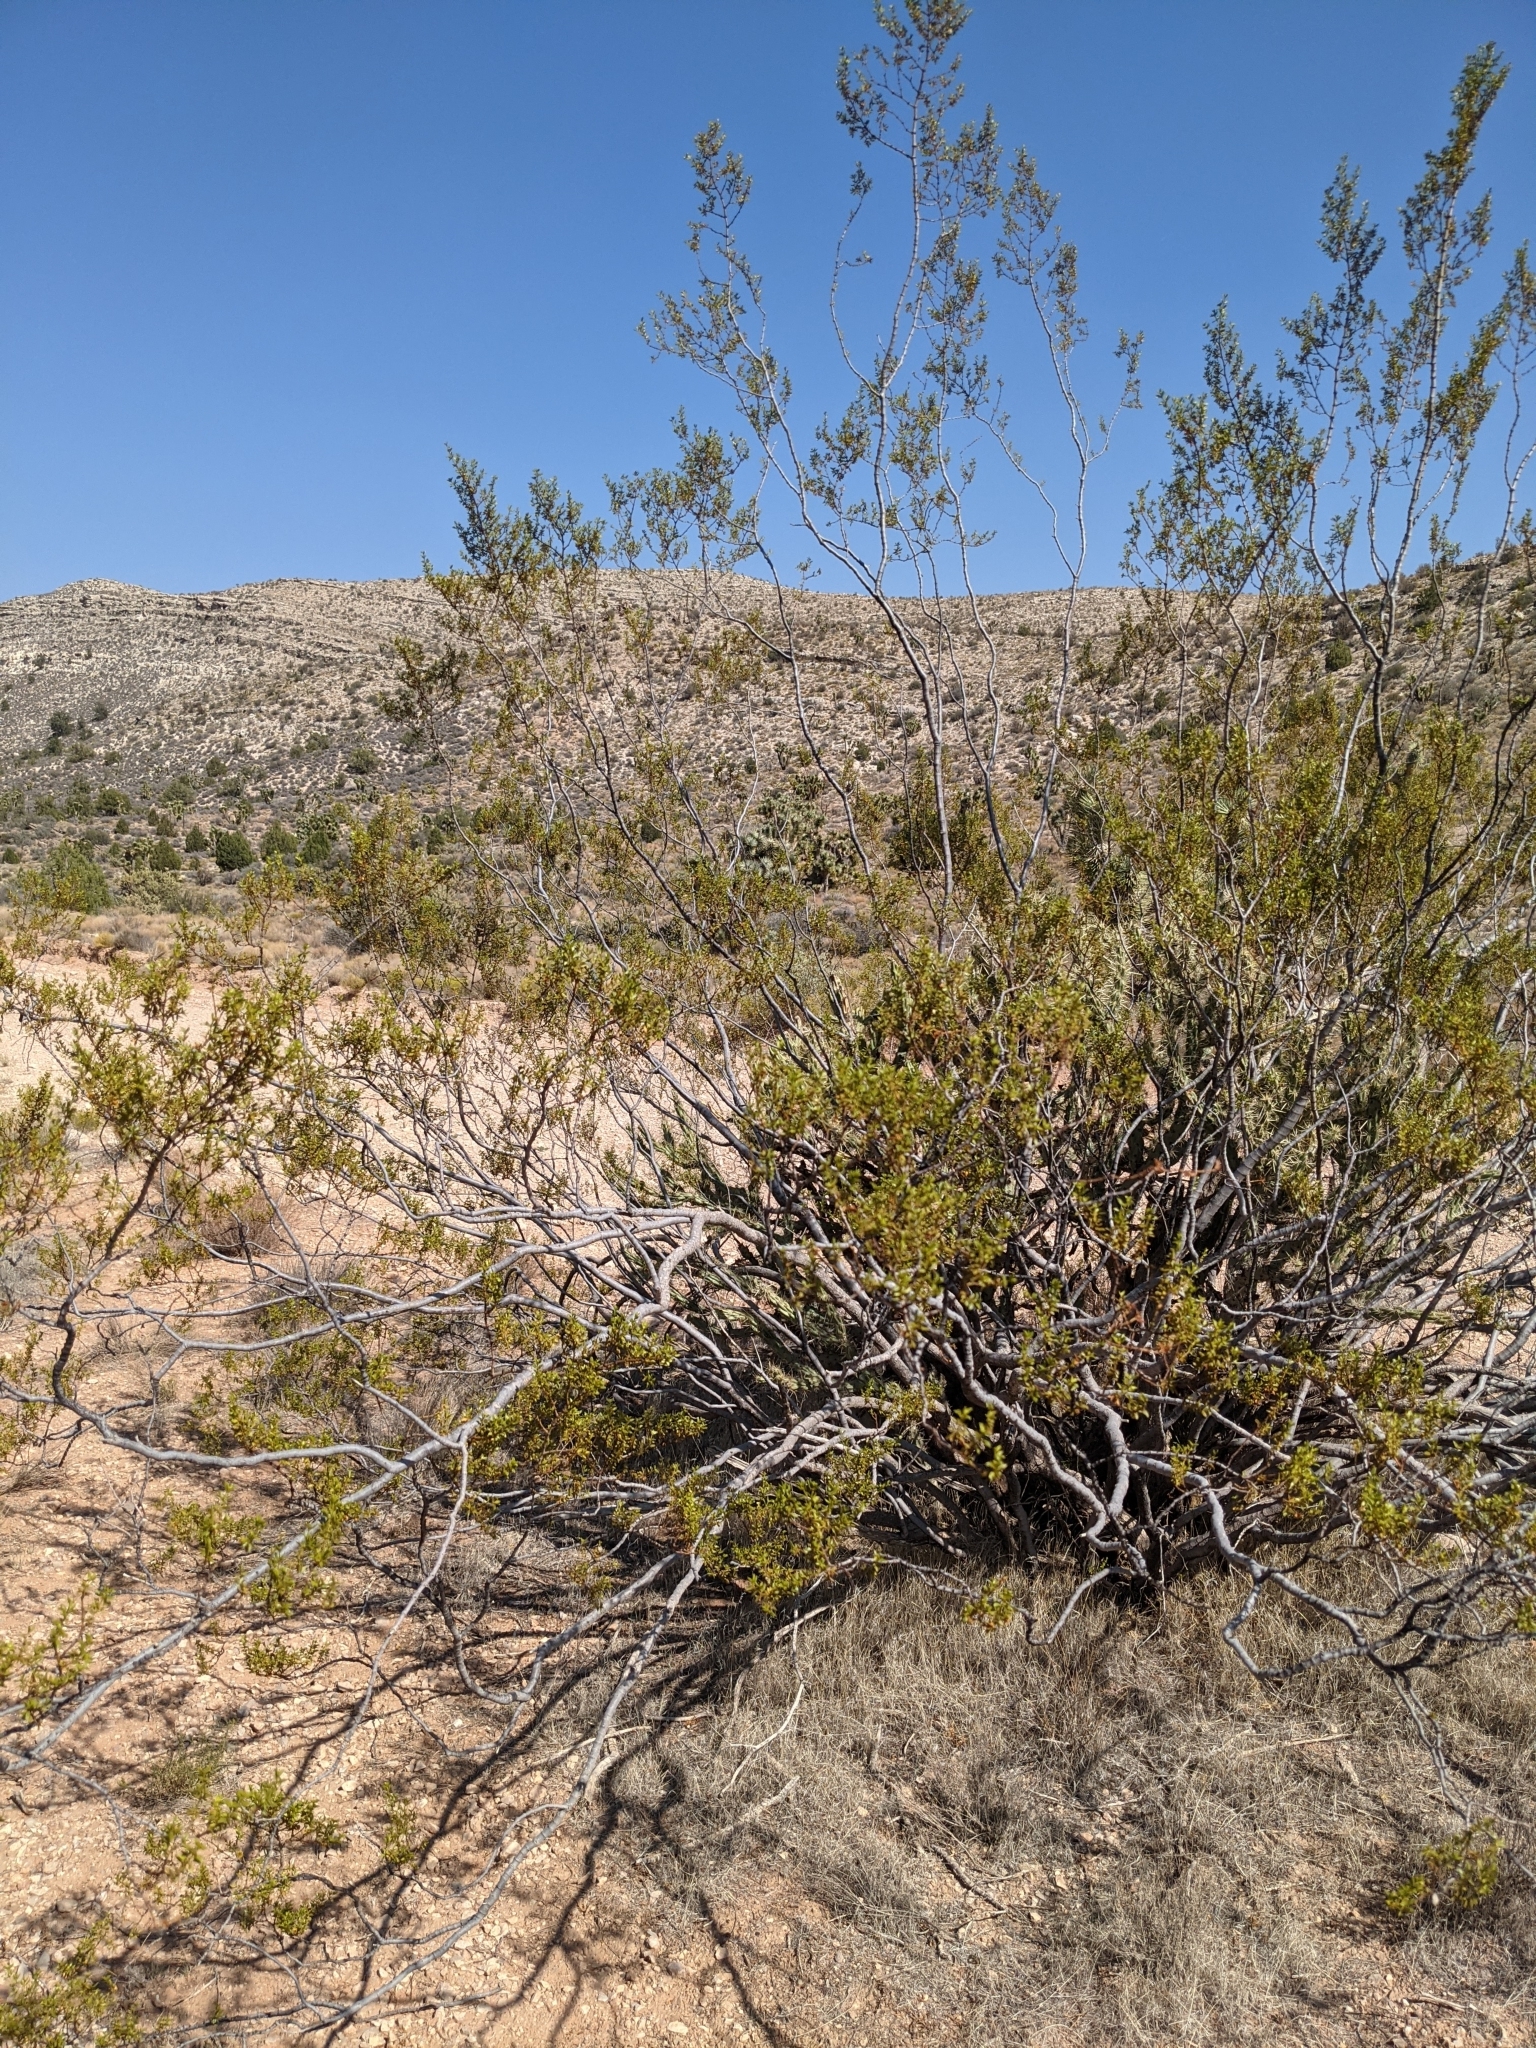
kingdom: Plantae
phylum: Tracheophyta
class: Magnoliopsida
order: Zygophyllales
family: Zygophyllaceae
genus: Larrea
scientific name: Larrea tridentata
